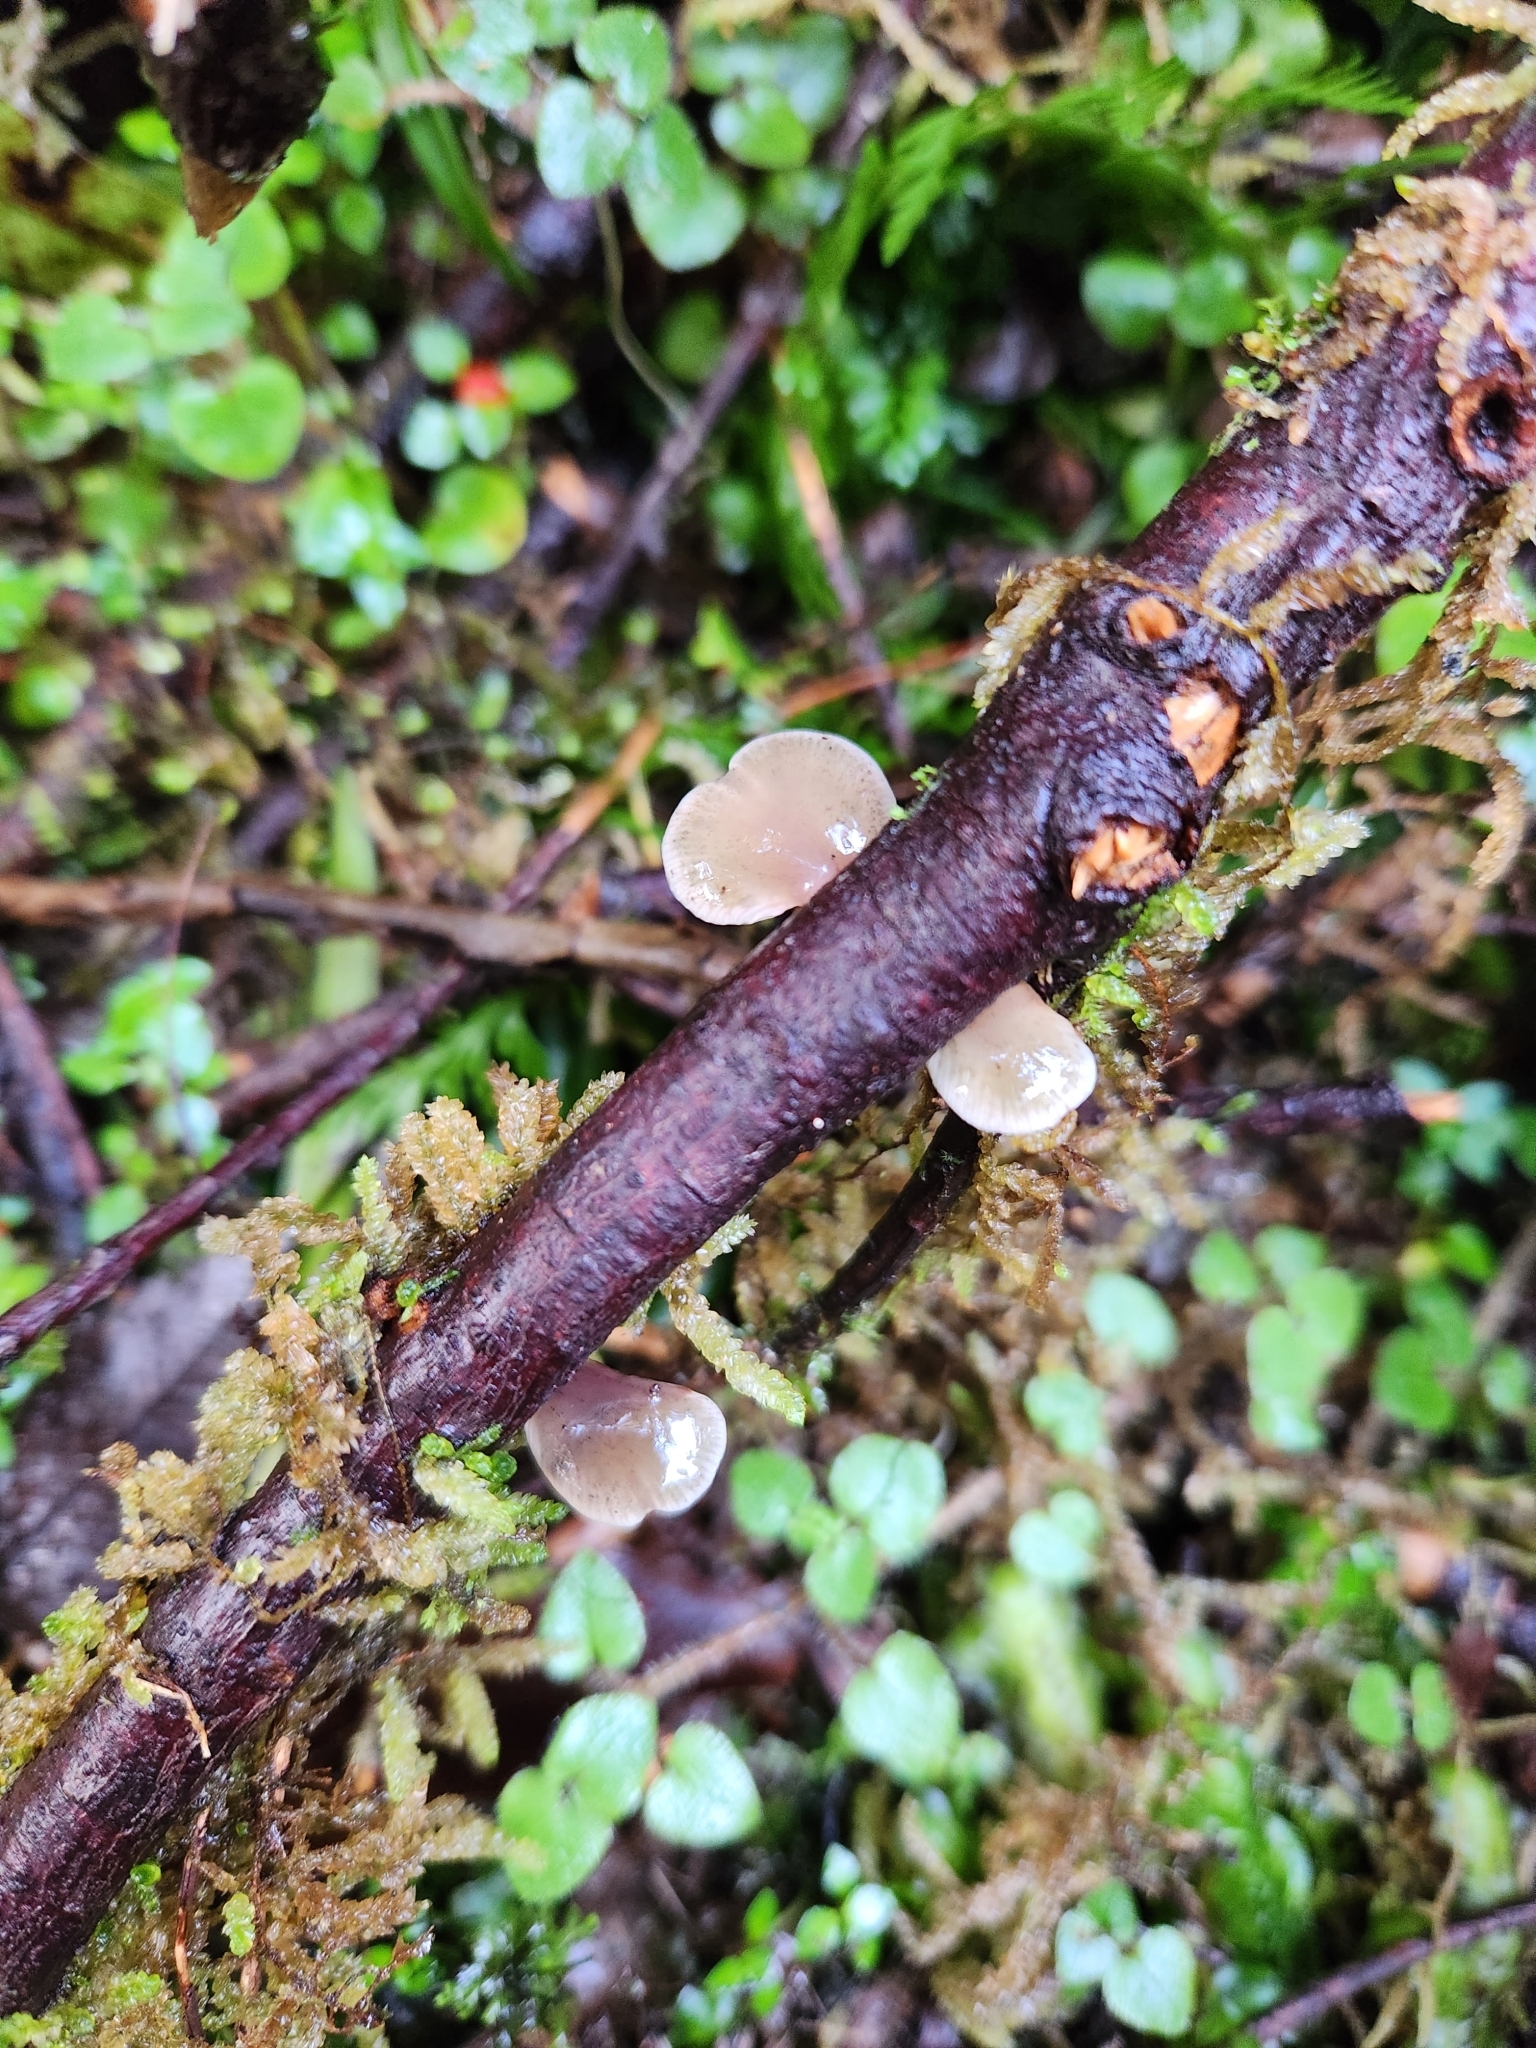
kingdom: Fungi
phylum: Basidiomycota
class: Agaricomycetes
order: Agaricales
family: Mycenaceae
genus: Panellus
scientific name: Panellus longinquus
